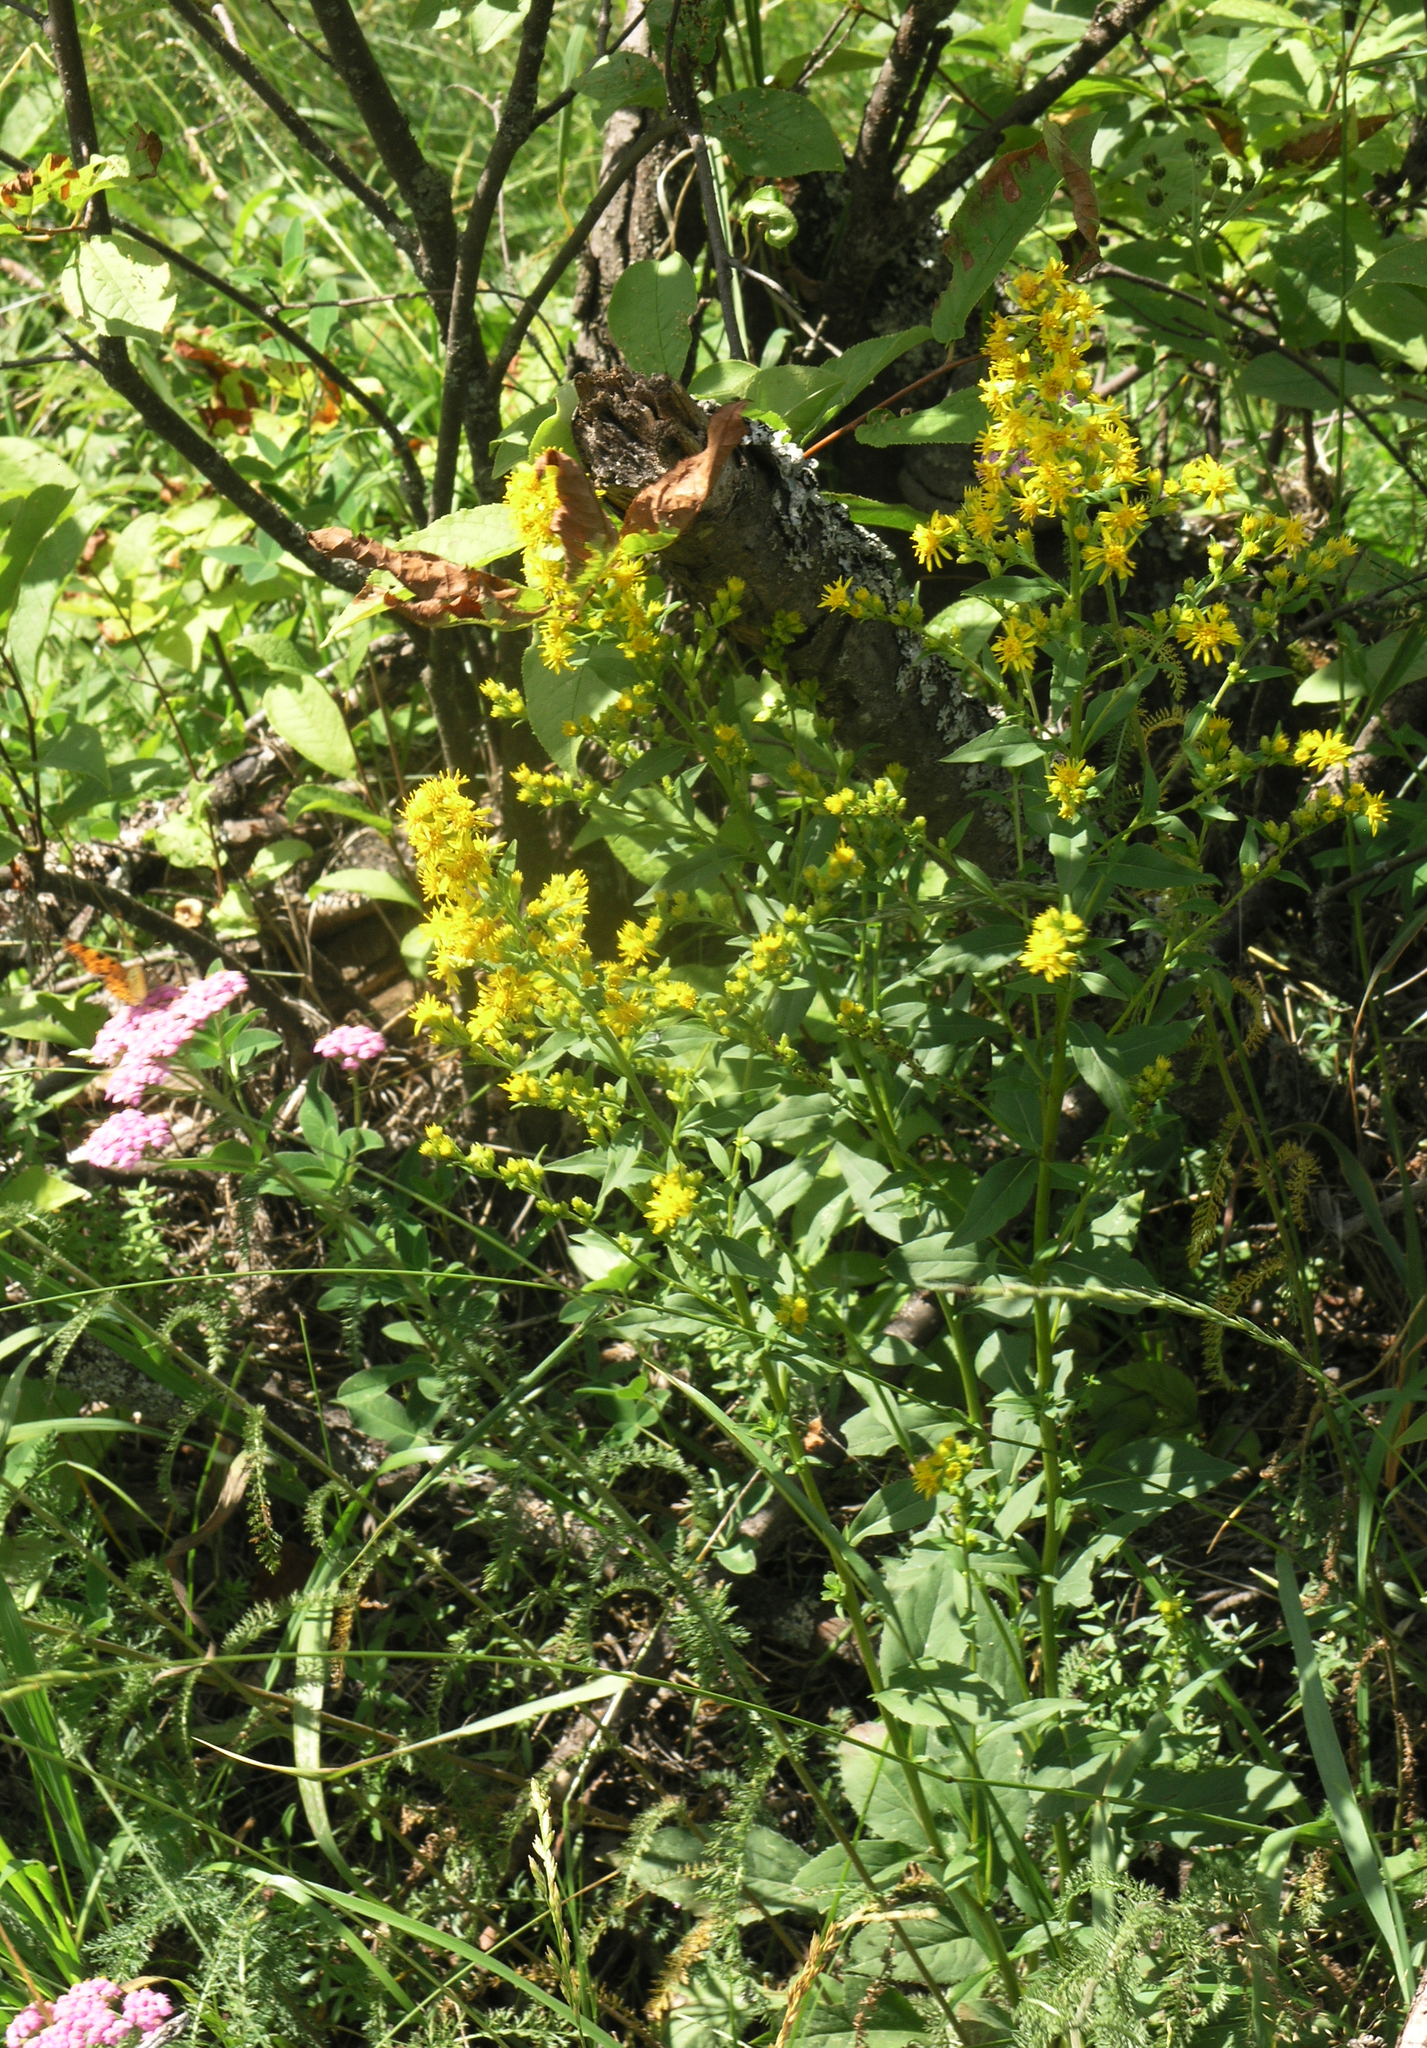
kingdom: Plantae
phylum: Tracheophyta
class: Magnoliopsida
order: Asterales
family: Asteraceae
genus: Solidago
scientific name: Solidago virgaurea
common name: Goldenrod
